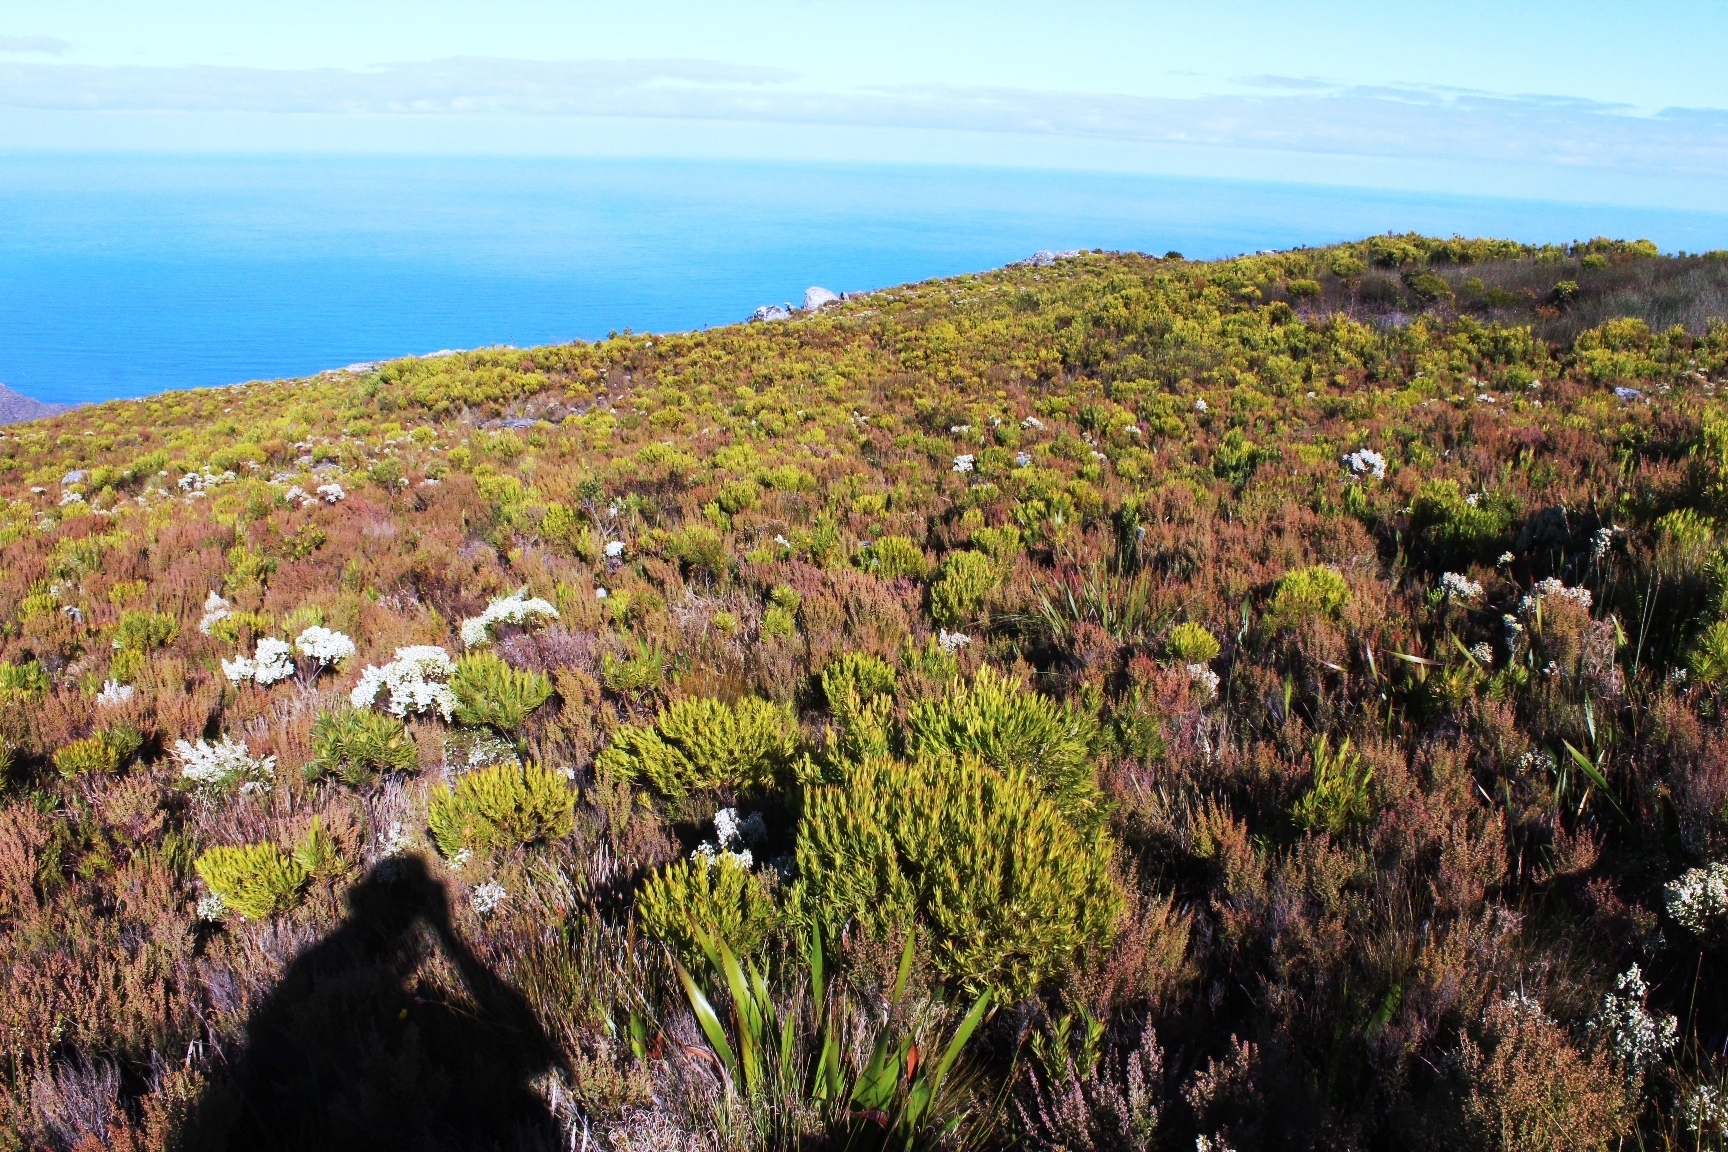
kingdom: Plantae
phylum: Tracheophyta
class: Magnoliopsida
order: Proteales
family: Proteaceae
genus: Leucadendron
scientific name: Leucadendron xanthoconus
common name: Sickle-leaf conebush
